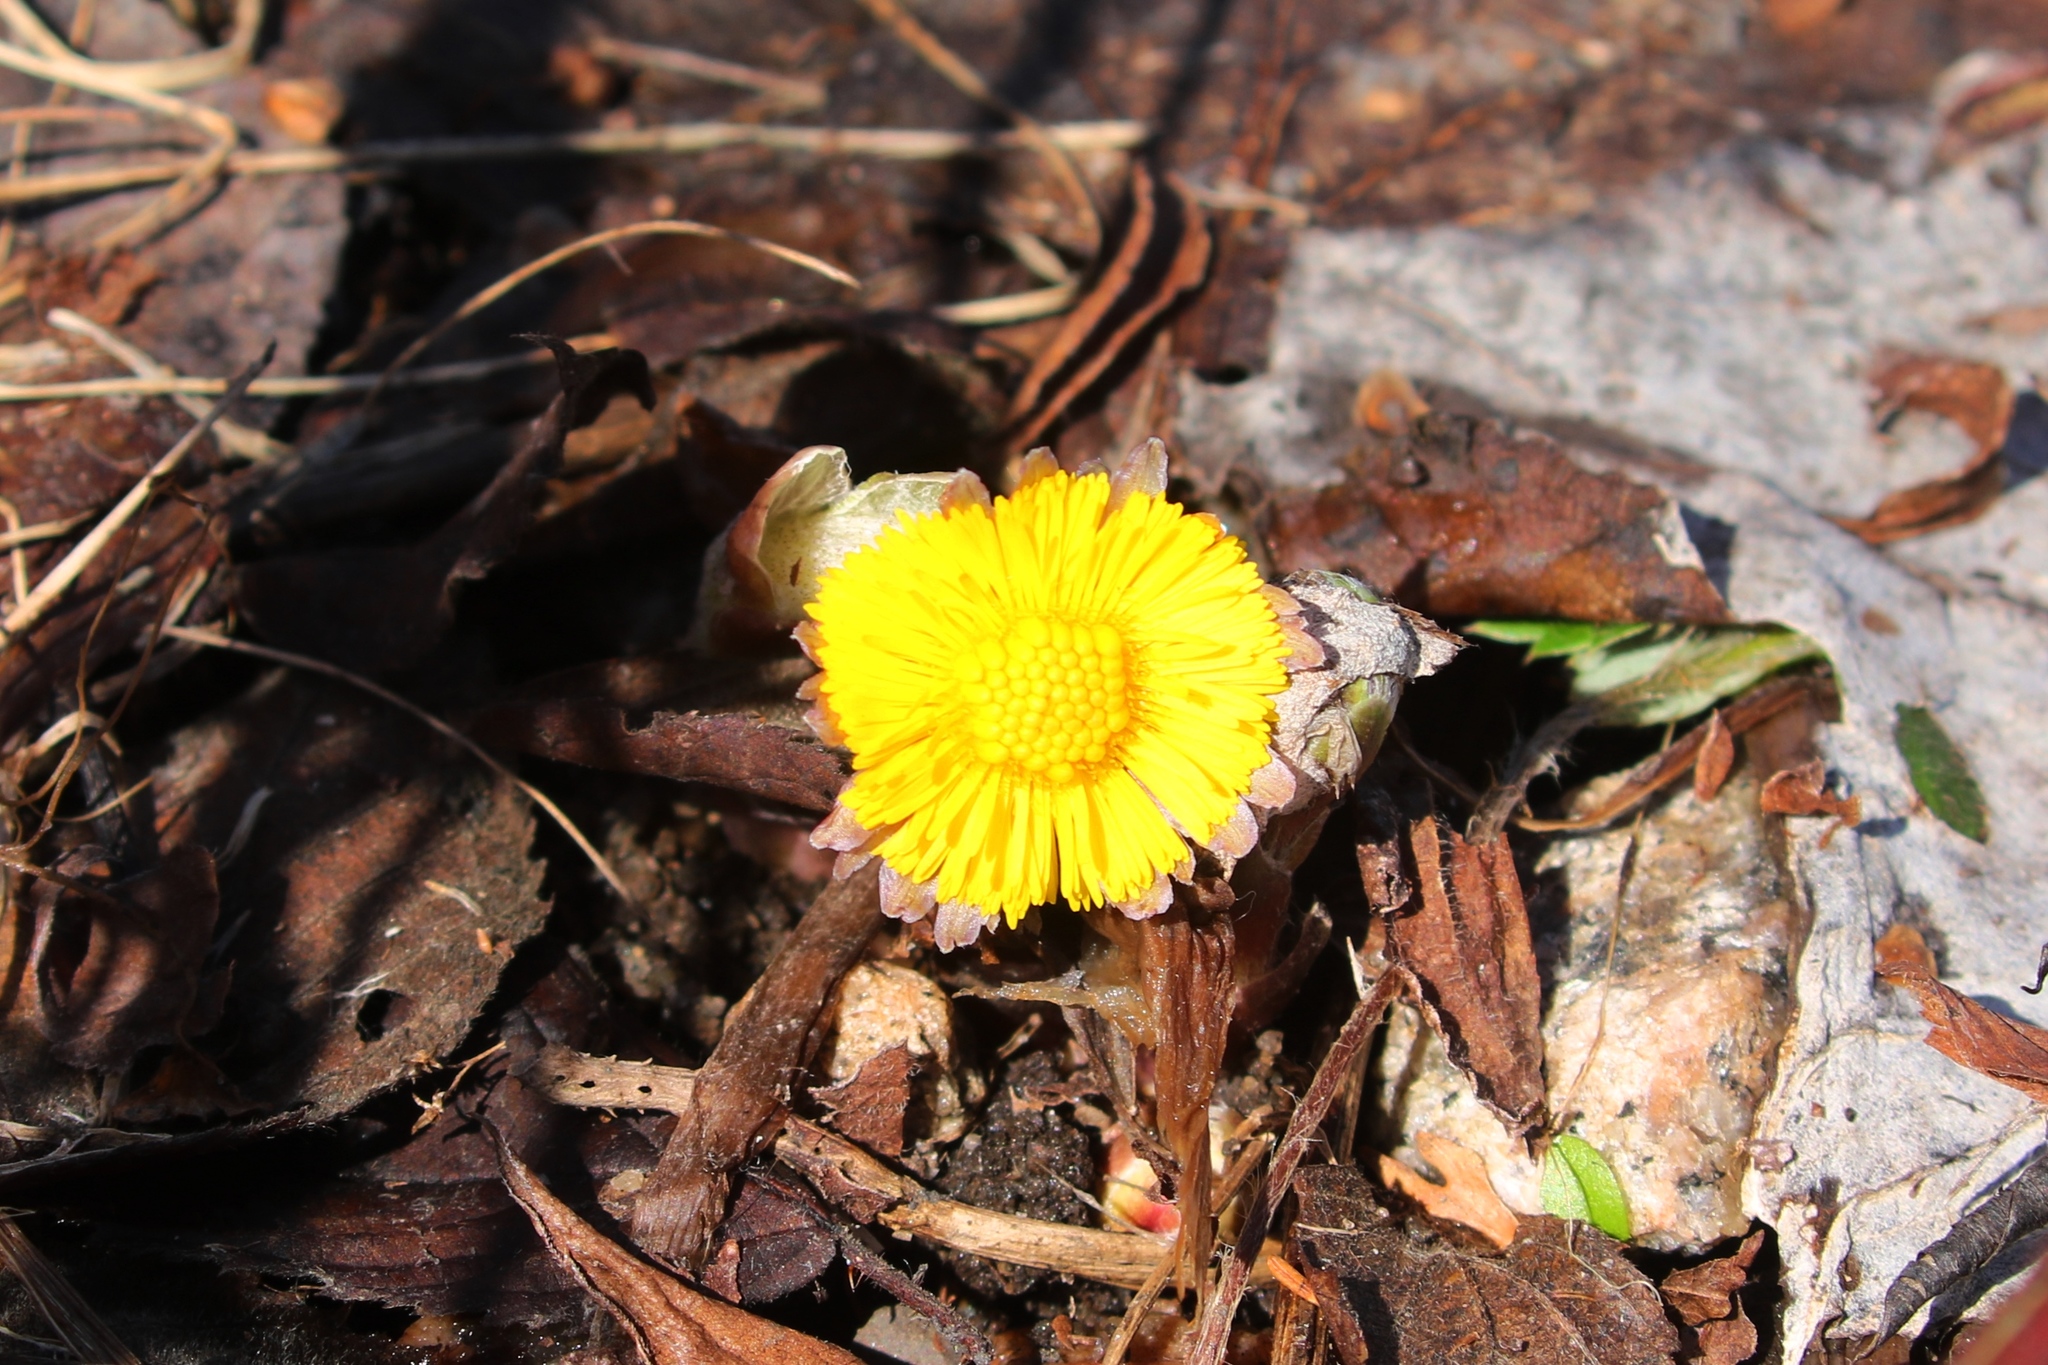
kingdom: Plantae
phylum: Tracheophyta
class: Magnoliopsida
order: Asterales
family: Asteraceae
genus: Tussilago
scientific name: Tussilago farfara
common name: Coltsfoot
